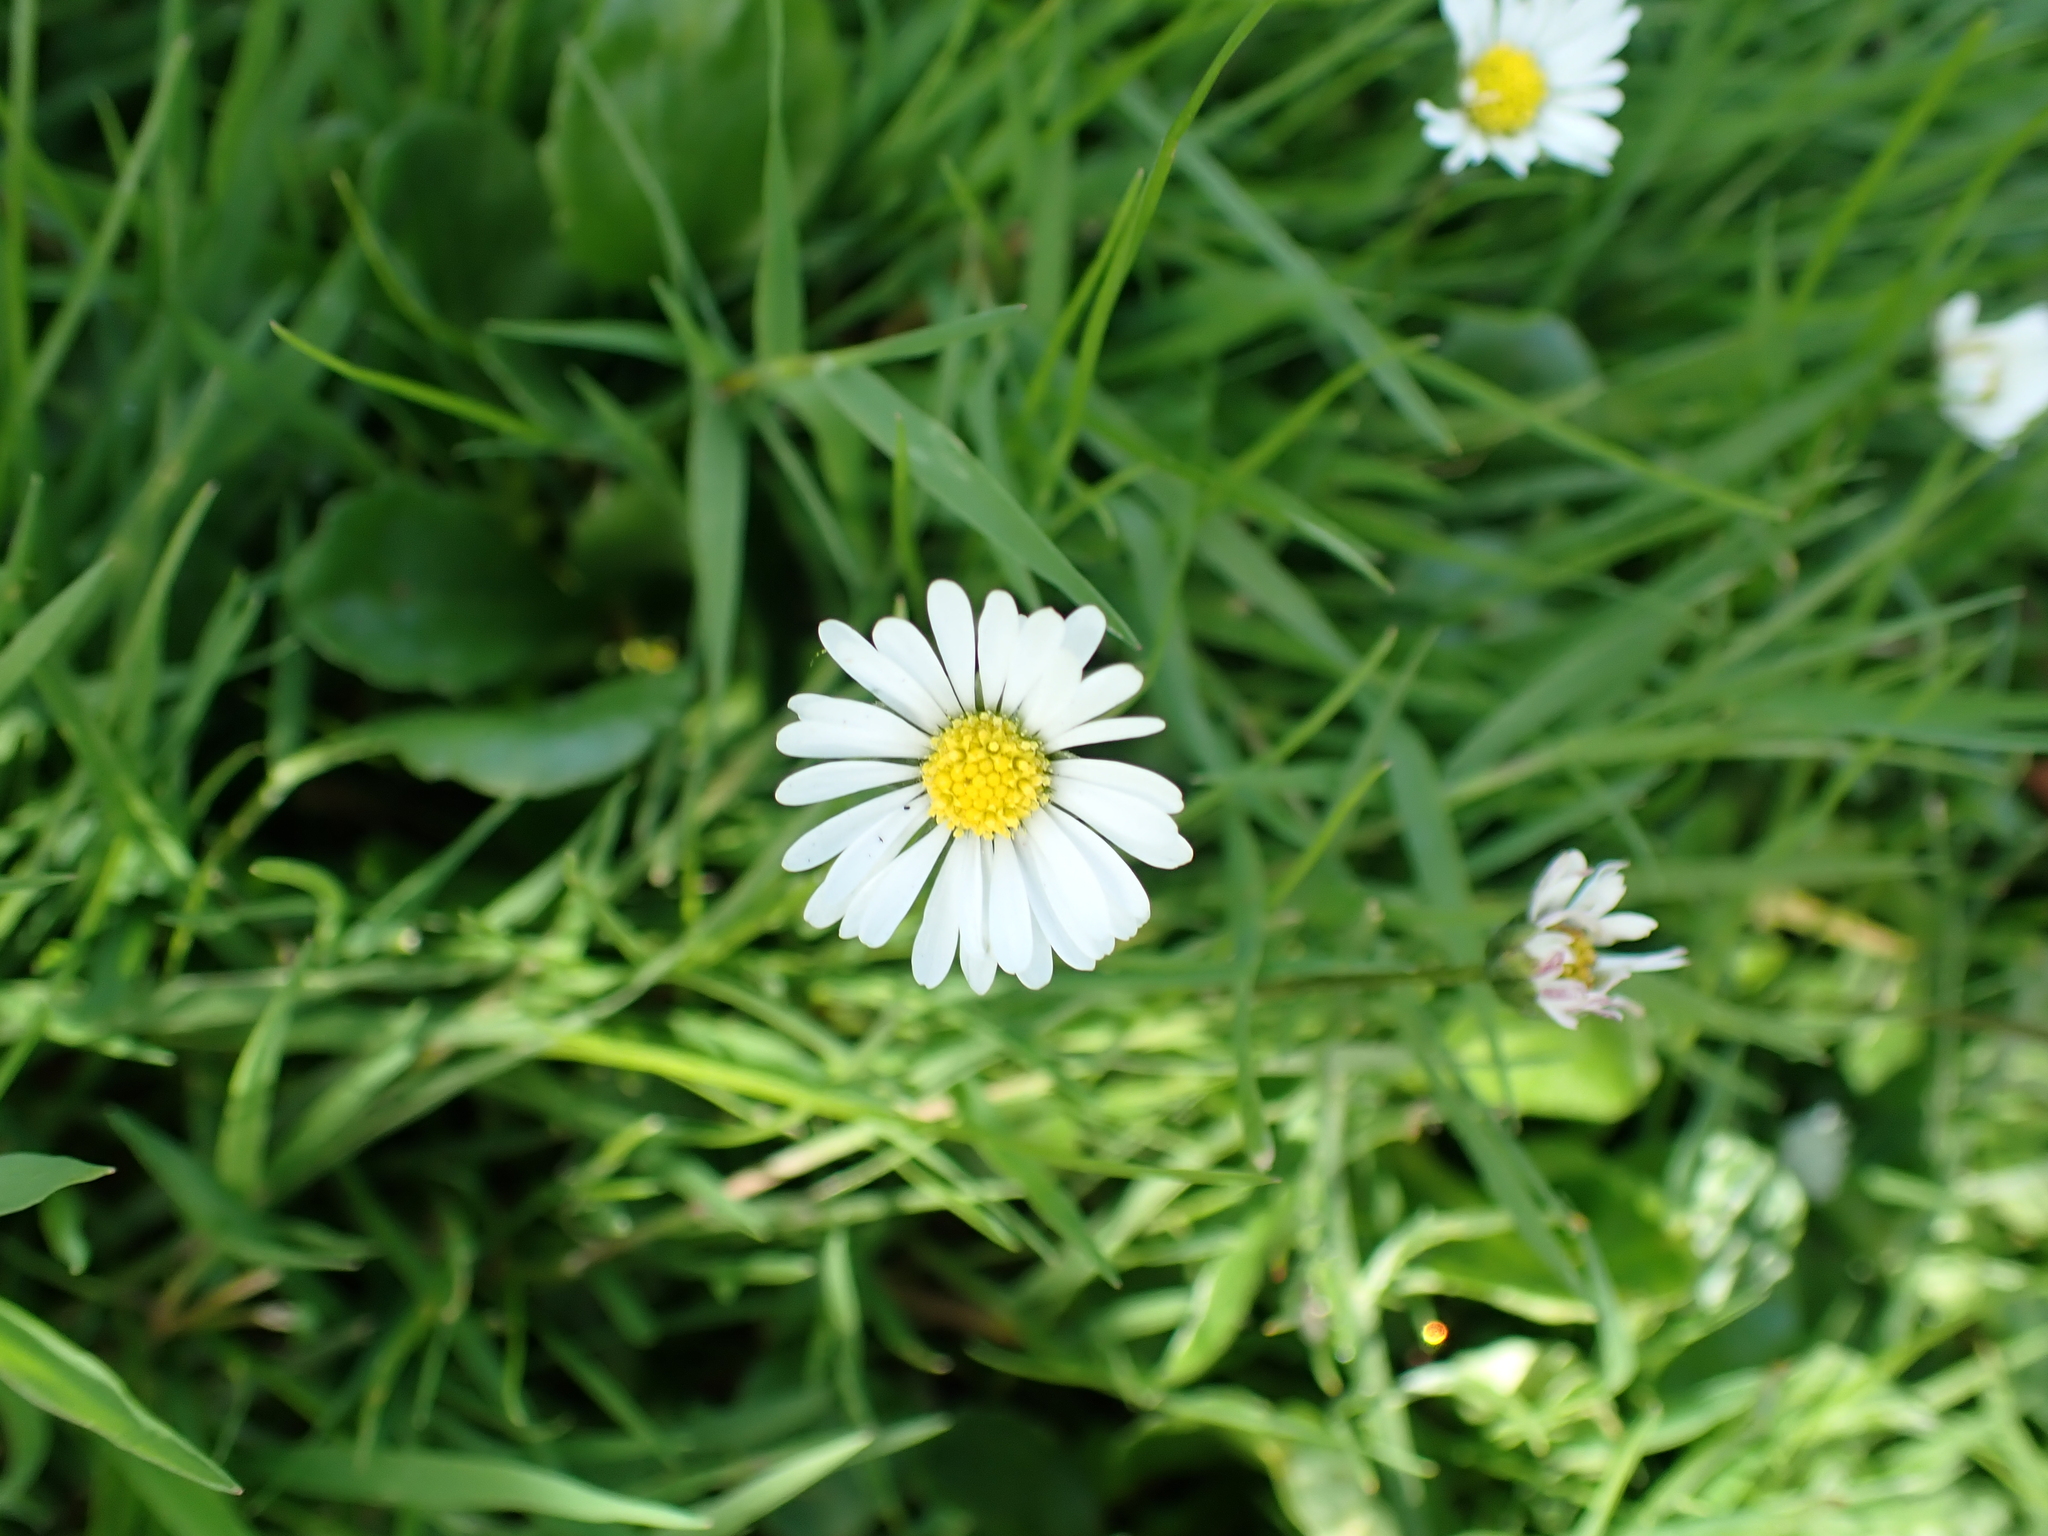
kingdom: Plantae
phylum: Tracheophyta
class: Magnoliopsida
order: Asterales
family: Asteraceae
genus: Bellis
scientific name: Bellis perennis
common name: Lawndaisy
